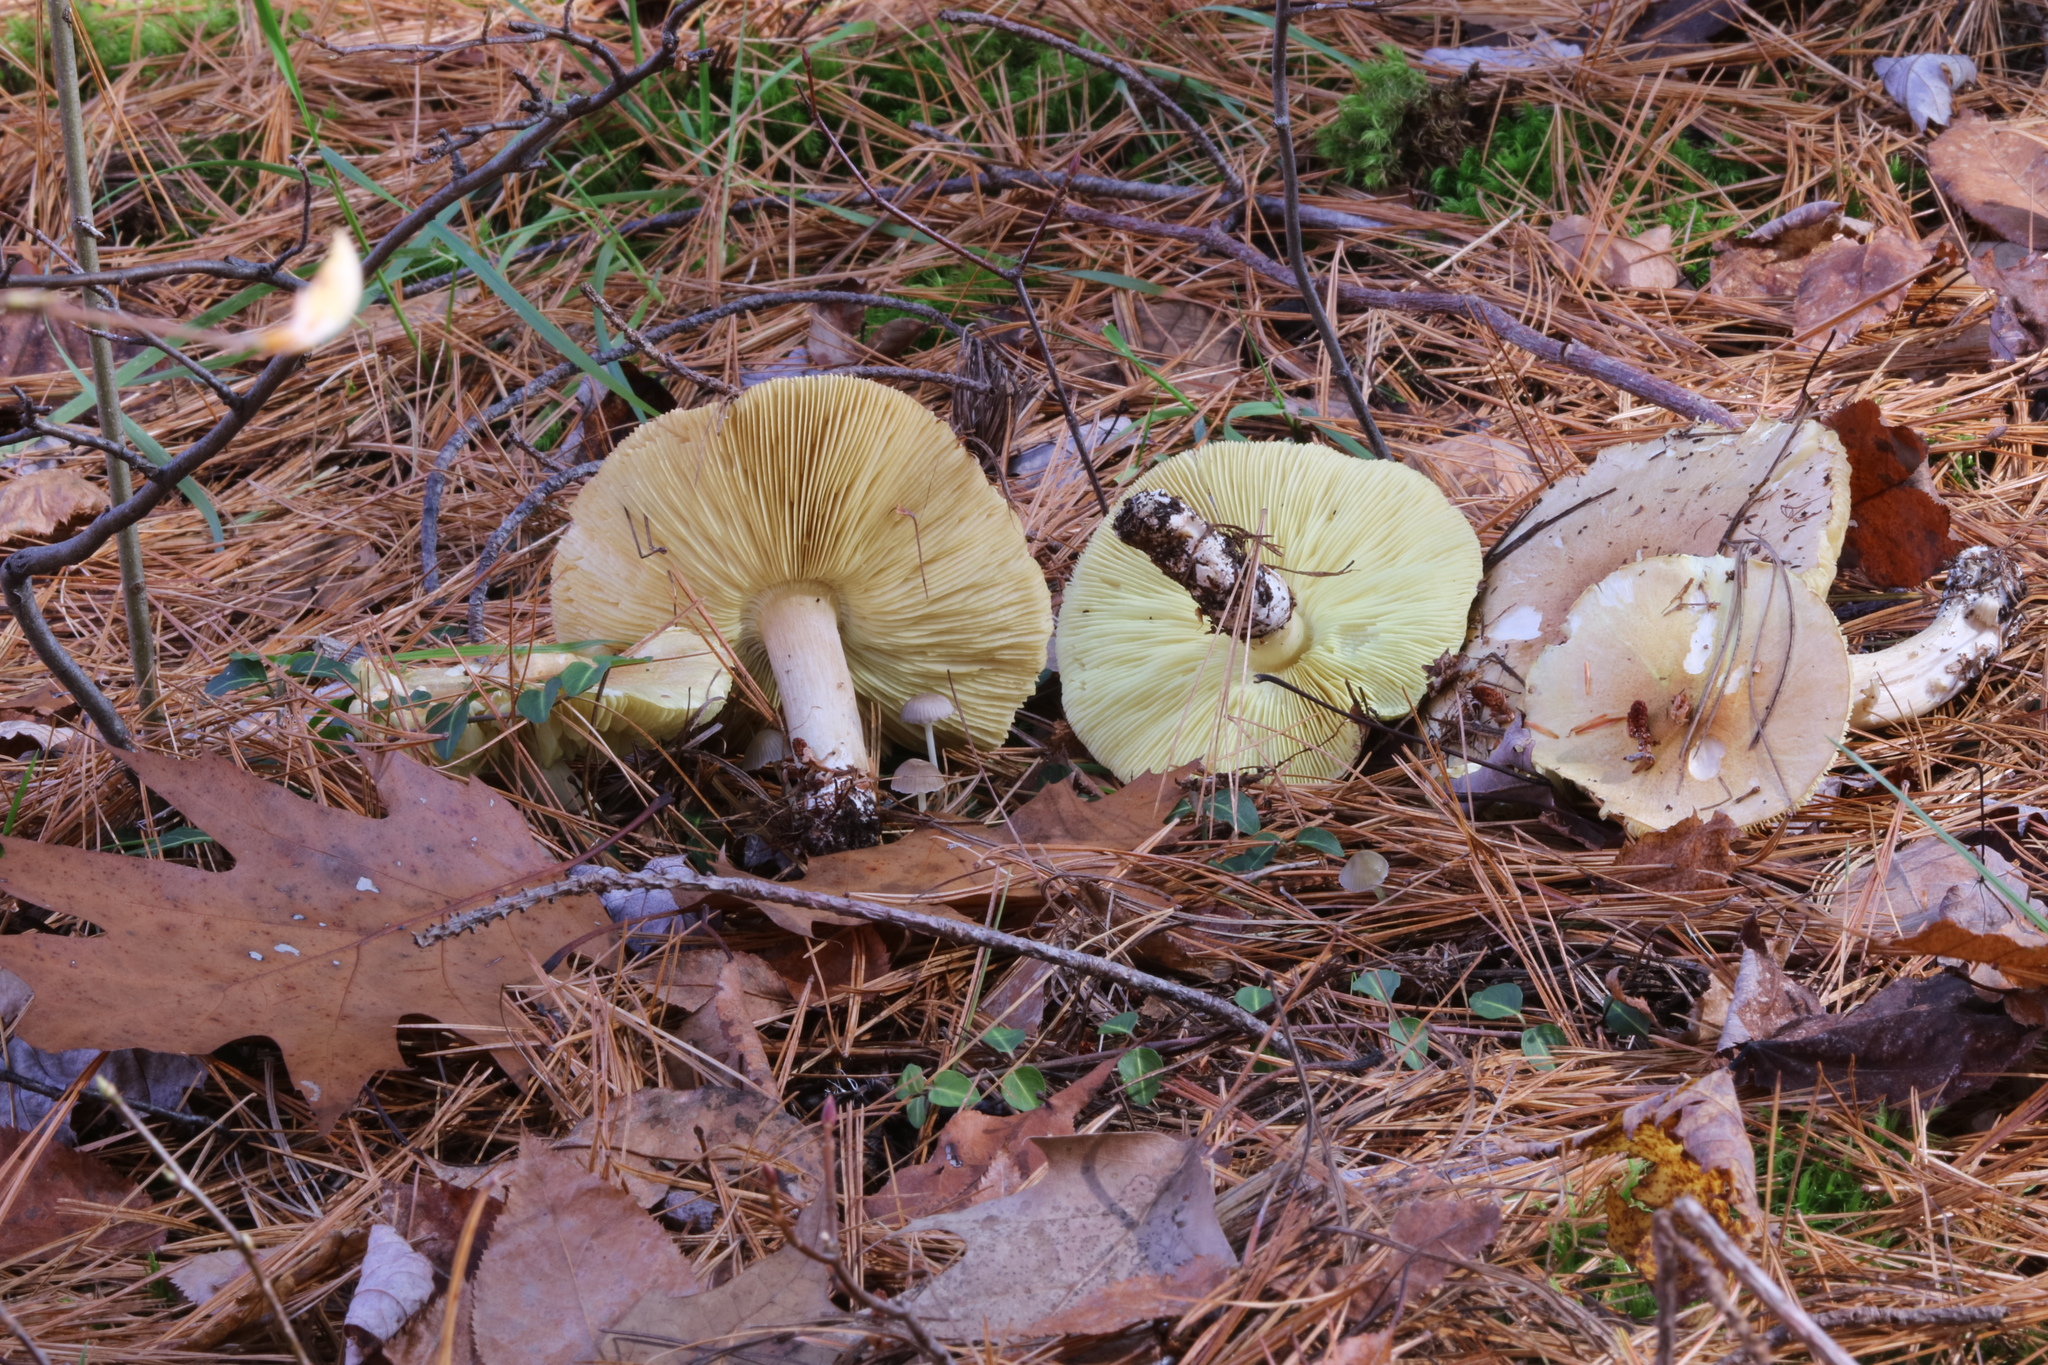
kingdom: Fungi
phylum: Basidiomycota
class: Agaricomycetes
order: Agaricales
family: Tricholomataceae
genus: Tricholoma
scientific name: Tricholoma equestre
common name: Yellow knight
